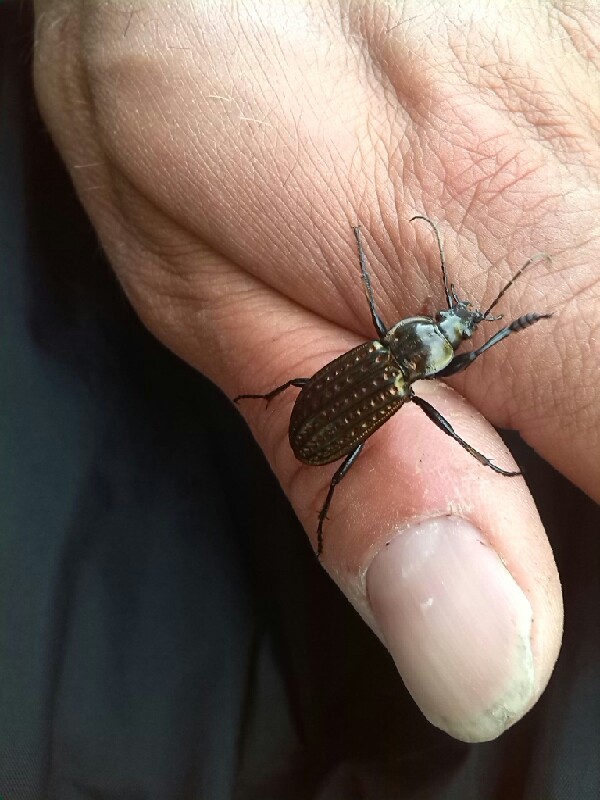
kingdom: Animalia
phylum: Arthropoda
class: Insecta
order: Coleoptera
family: Carabidae
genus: Carabus
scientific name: Carabus clatratus
